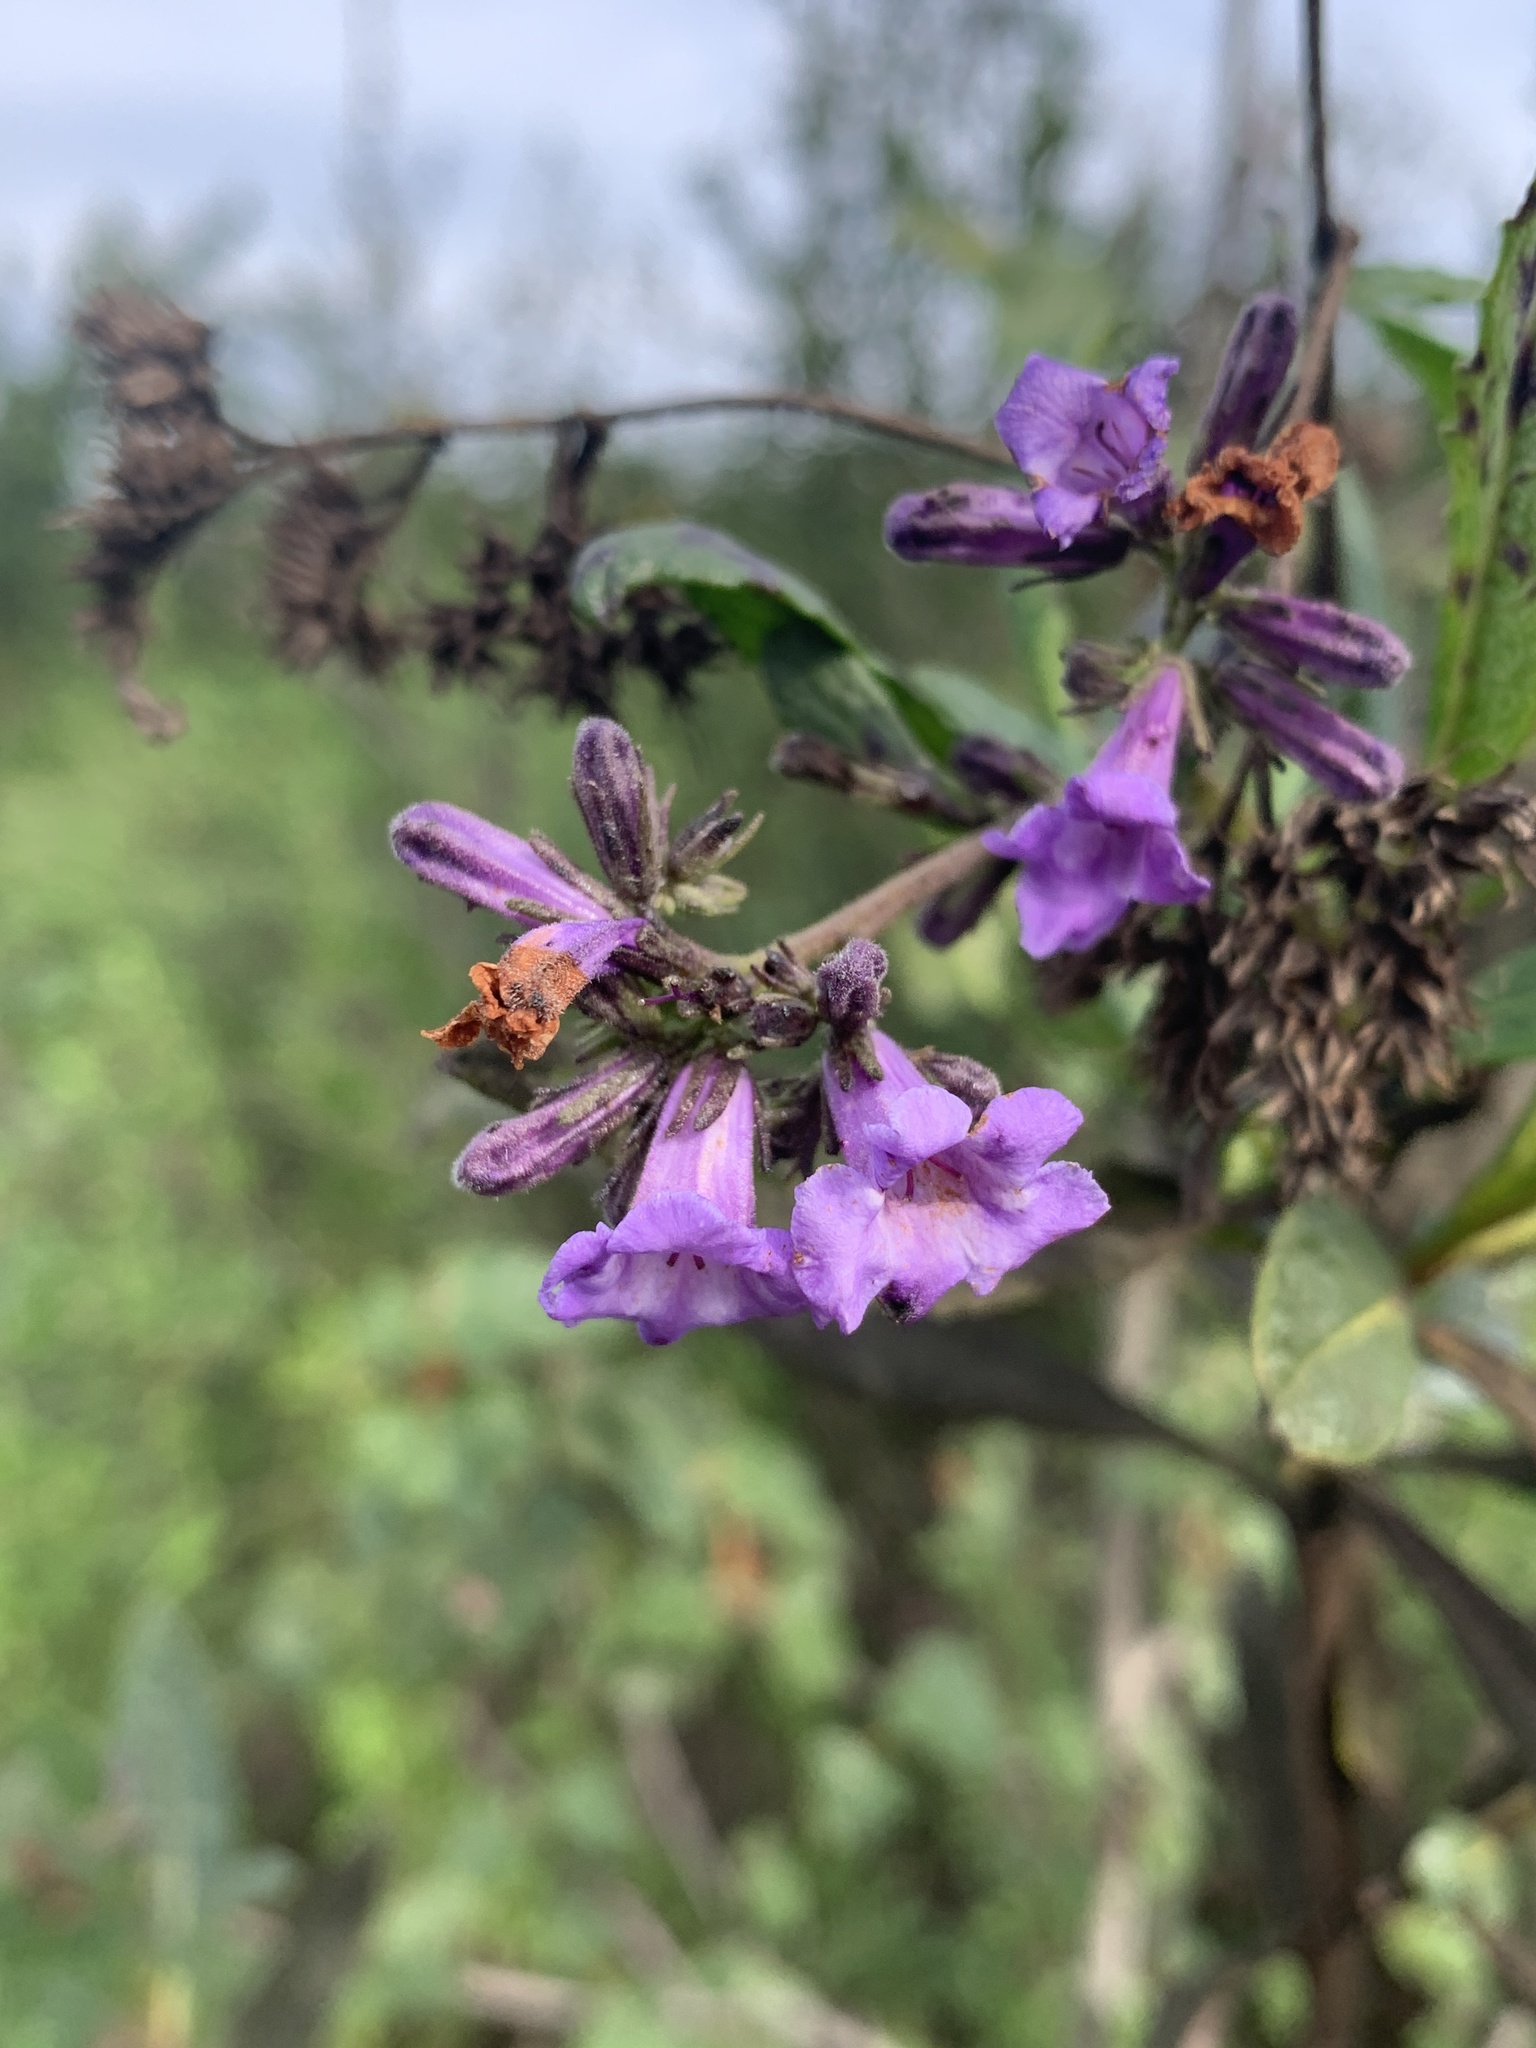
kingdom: Plantae
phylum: Tracheophyta
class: Magnoliopsida
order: Boraginales
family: Namaceae
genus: Eriodictyon
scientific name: Eriodictyon californicum
